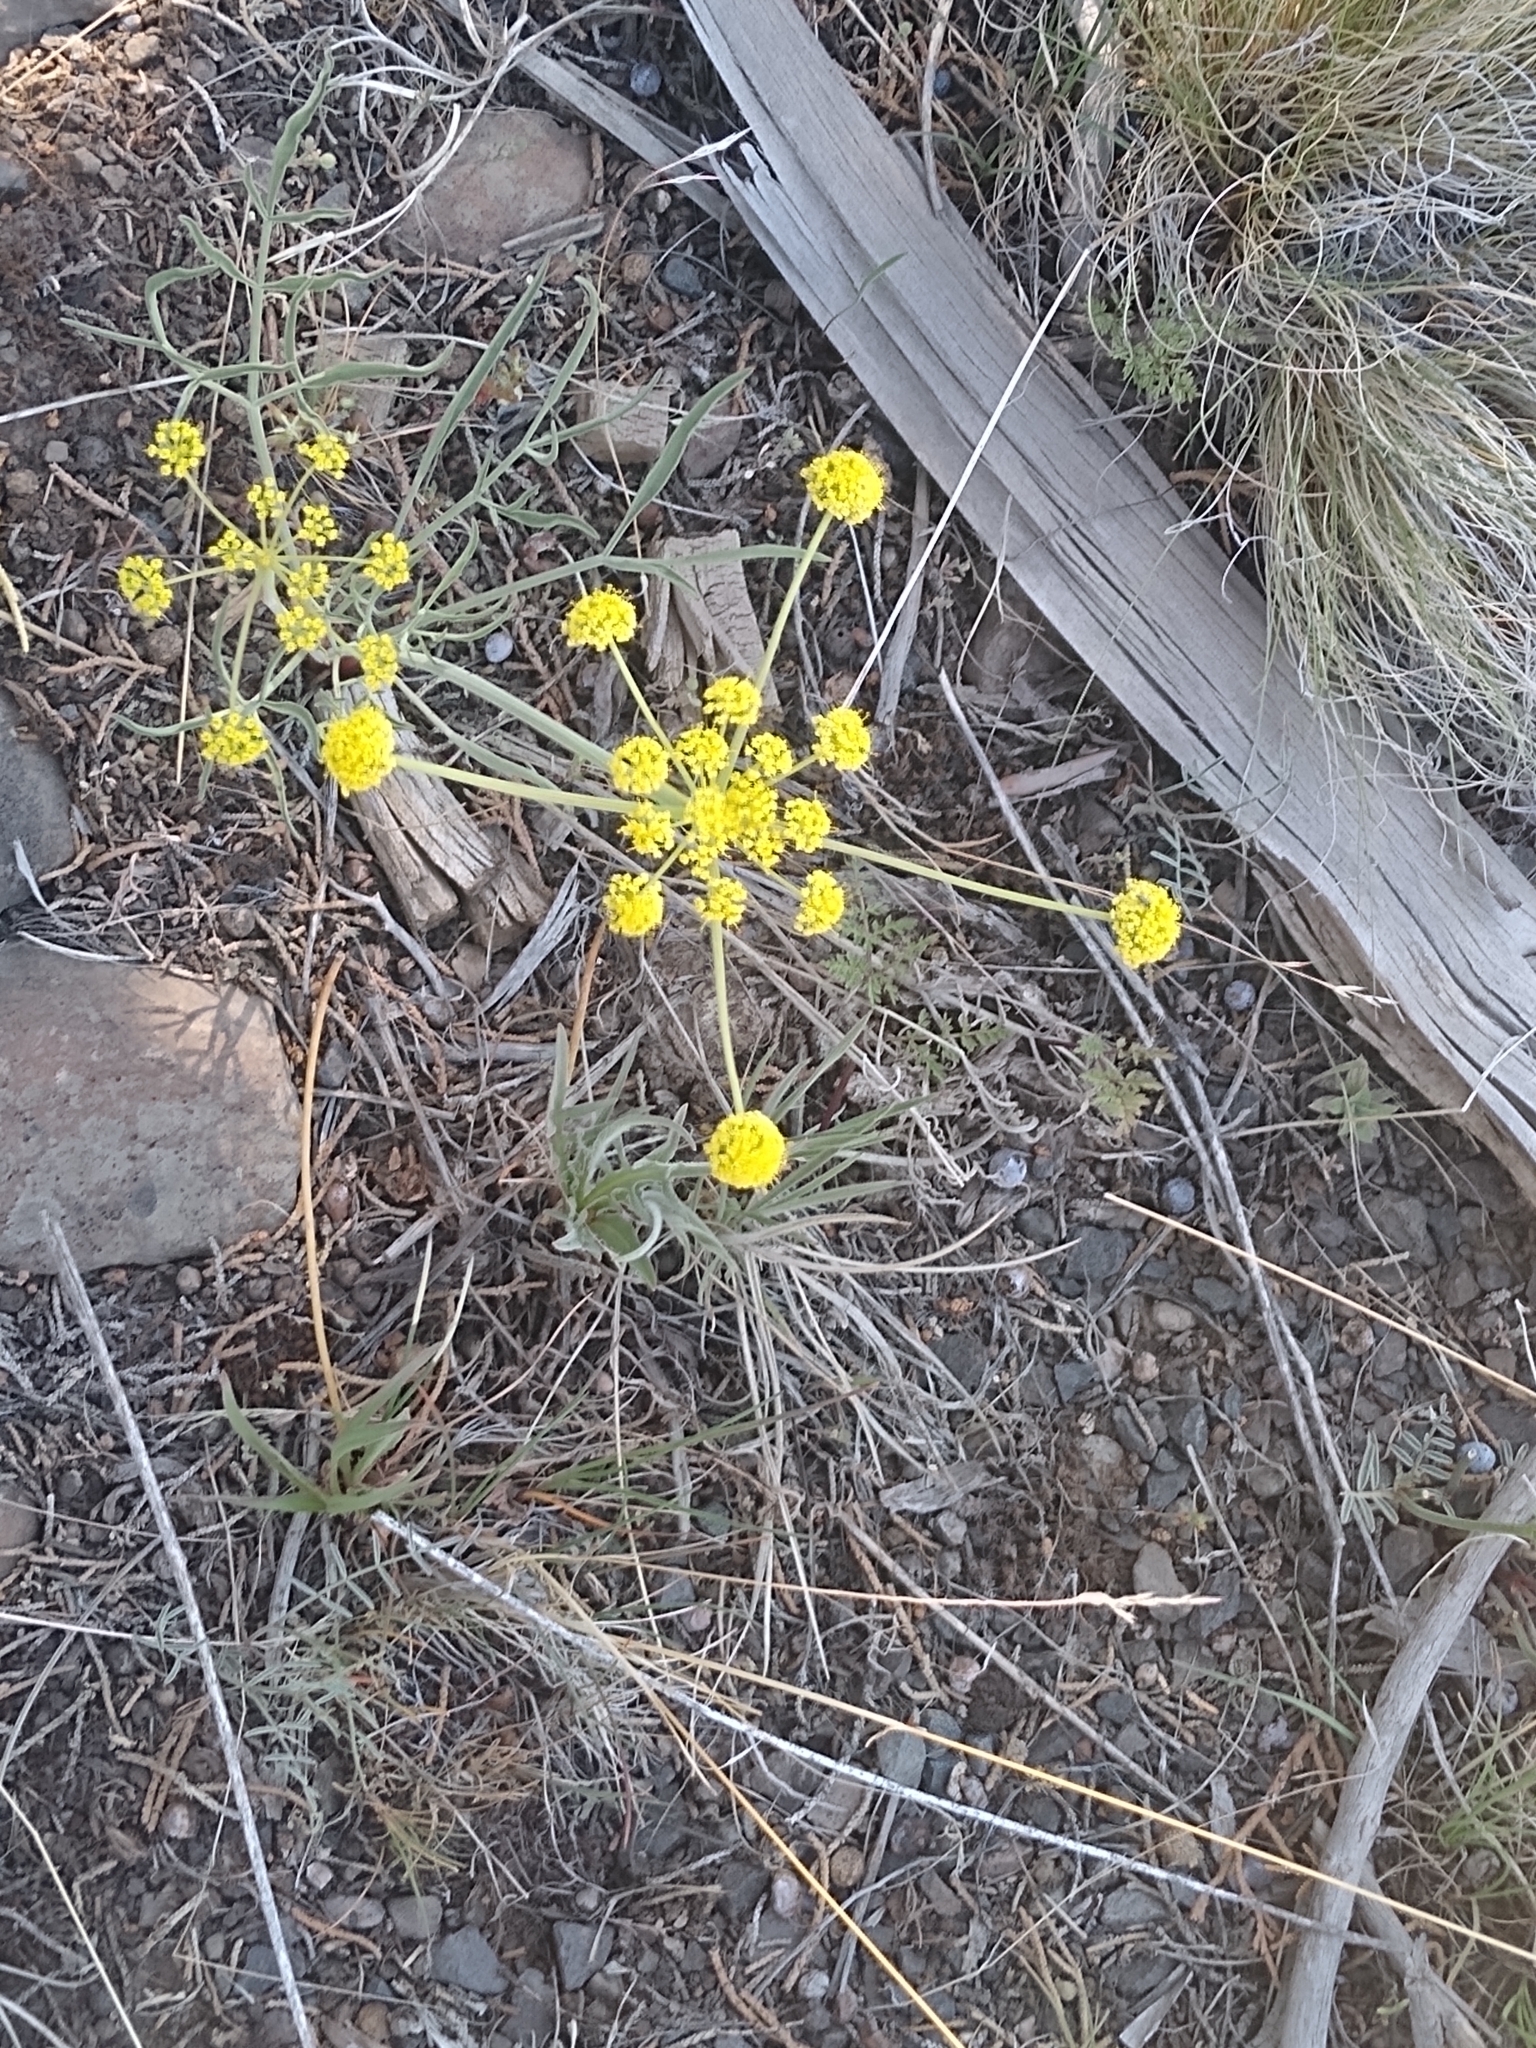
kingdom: Plantae
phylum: Tracheophyta
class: Magnoliopsida
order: Apiales
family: Apiaceae
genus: Lomatium
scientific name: Lomatium triternatum
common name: Ternate lomatium
